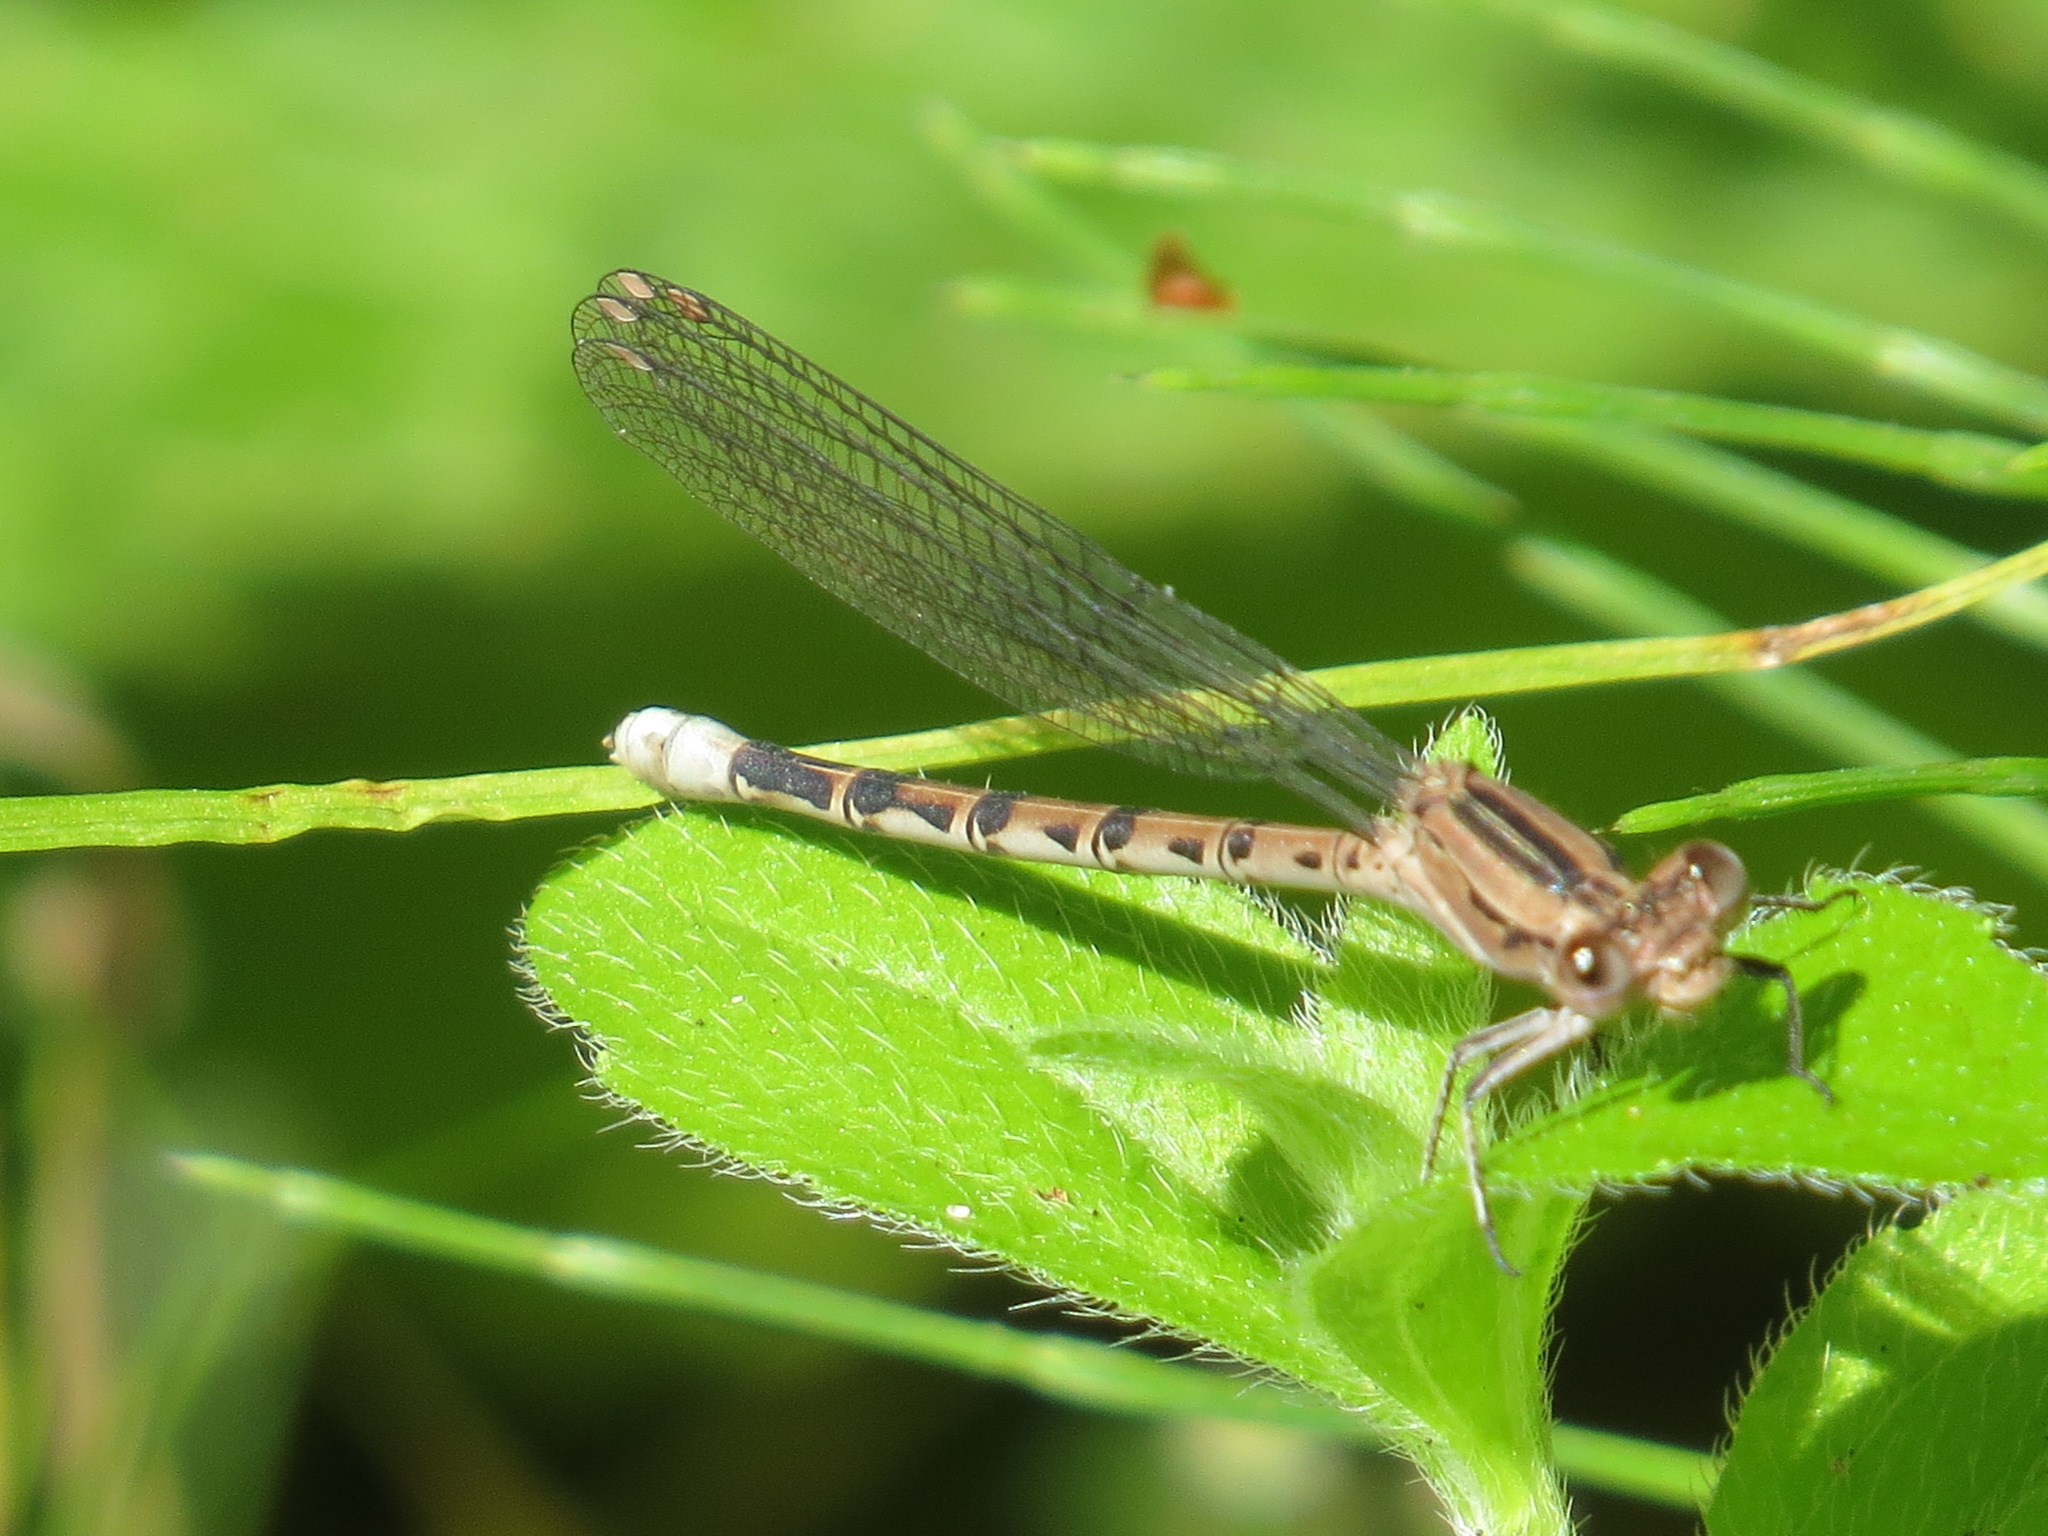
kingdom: Animalia
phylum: Arthropoda
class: Insecta
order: Odonata
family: Coenagrionidae
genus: Argia
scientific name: Argia vivida
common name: Vivid dancer
